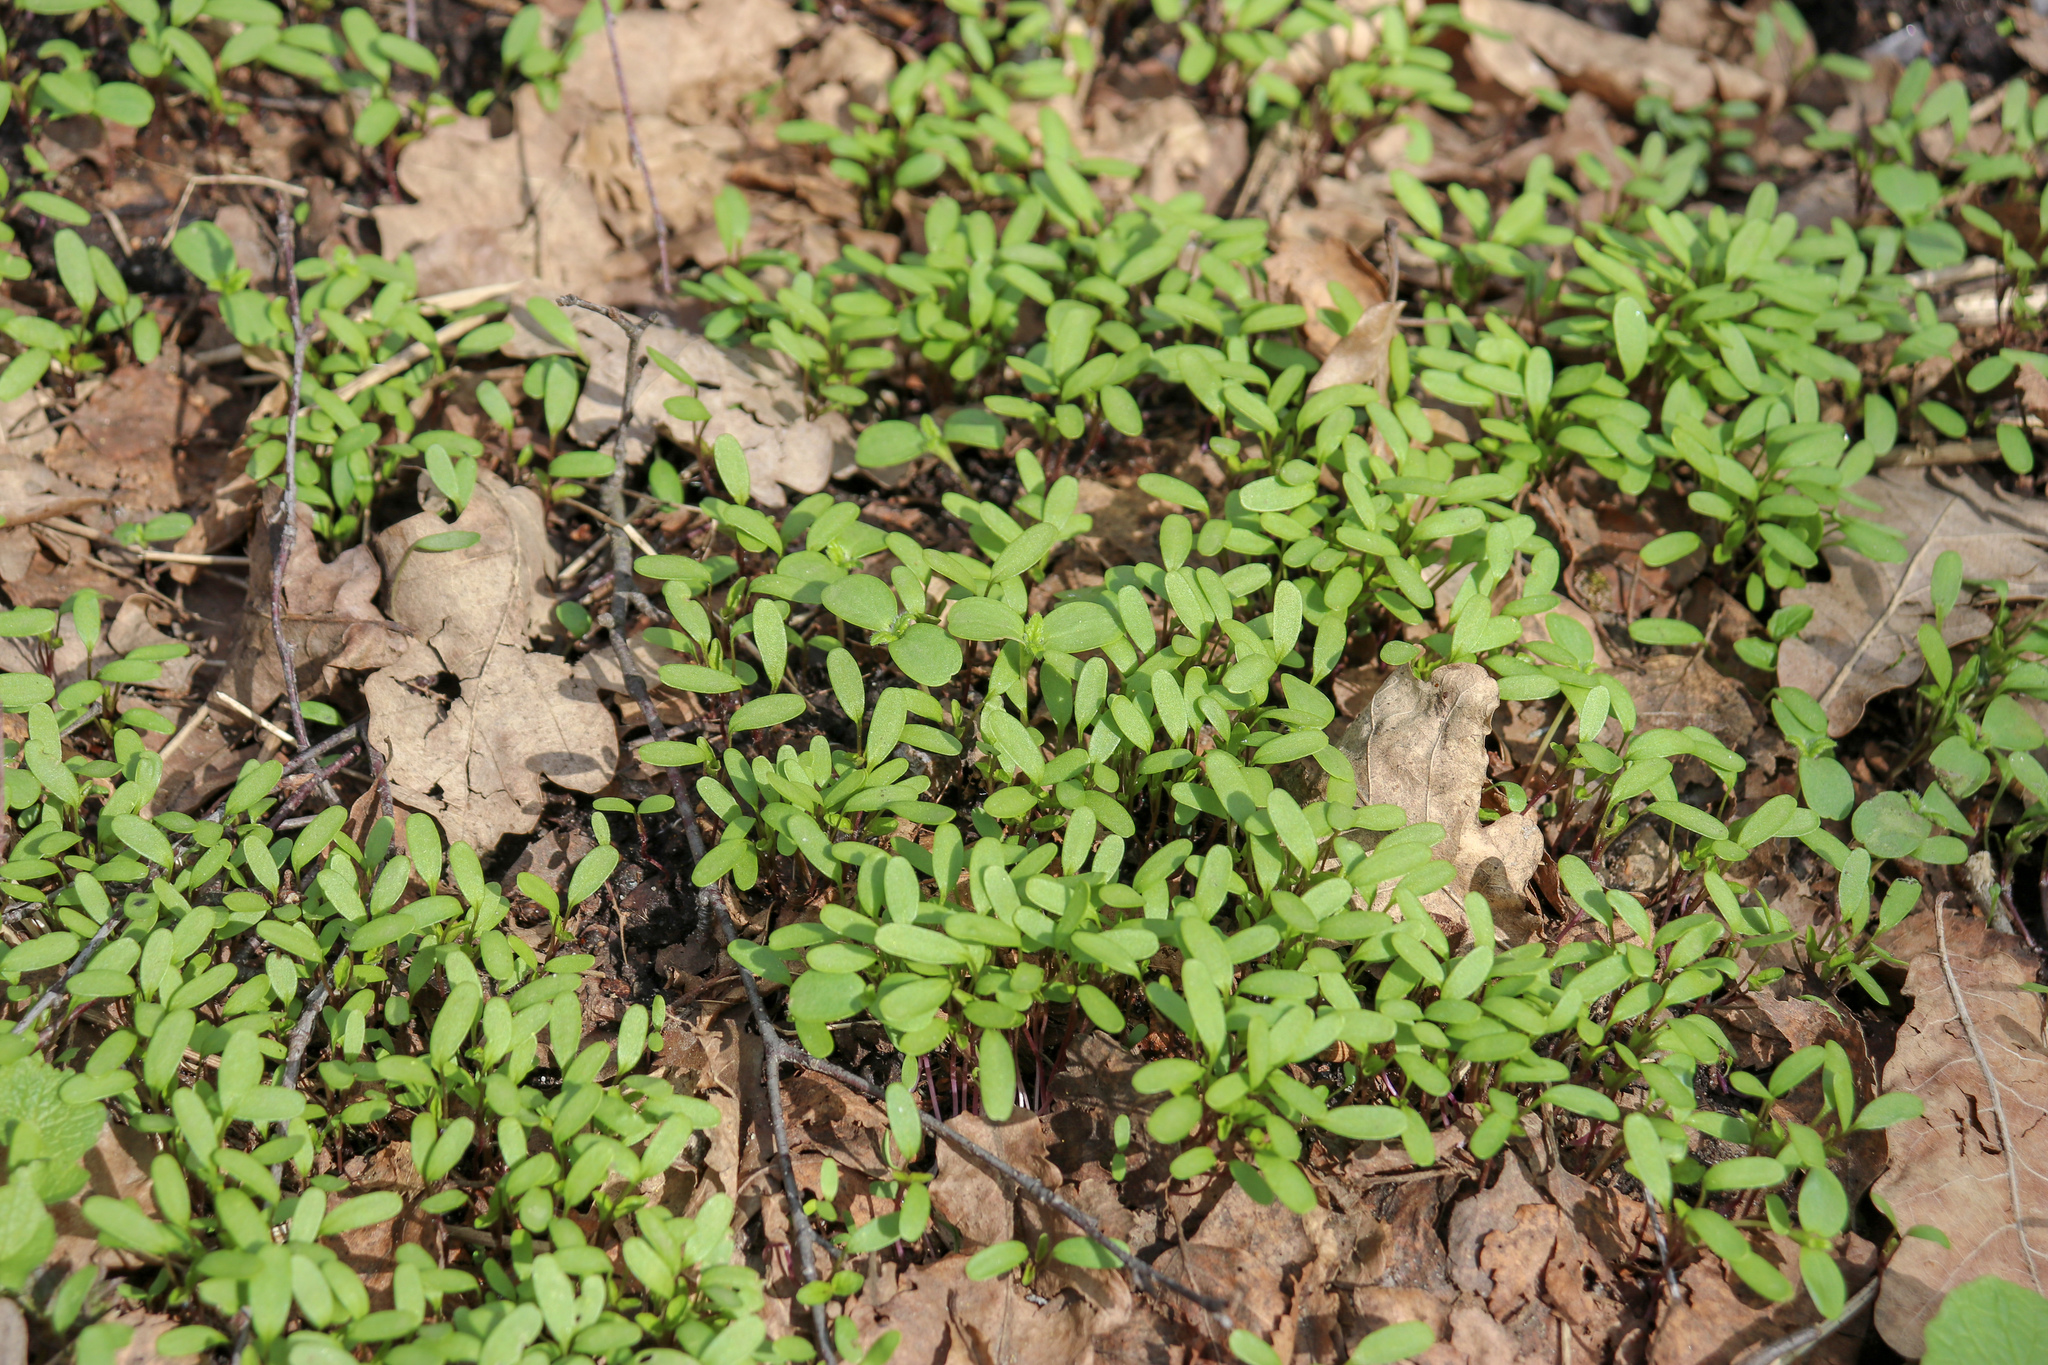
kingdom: Plantae
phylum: Tracheophyta
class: Magnoliopsida
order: Brassicales
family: Brassicaceae
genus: Alliaria
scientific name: Alliaria petiolata
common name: Garlic mustard
